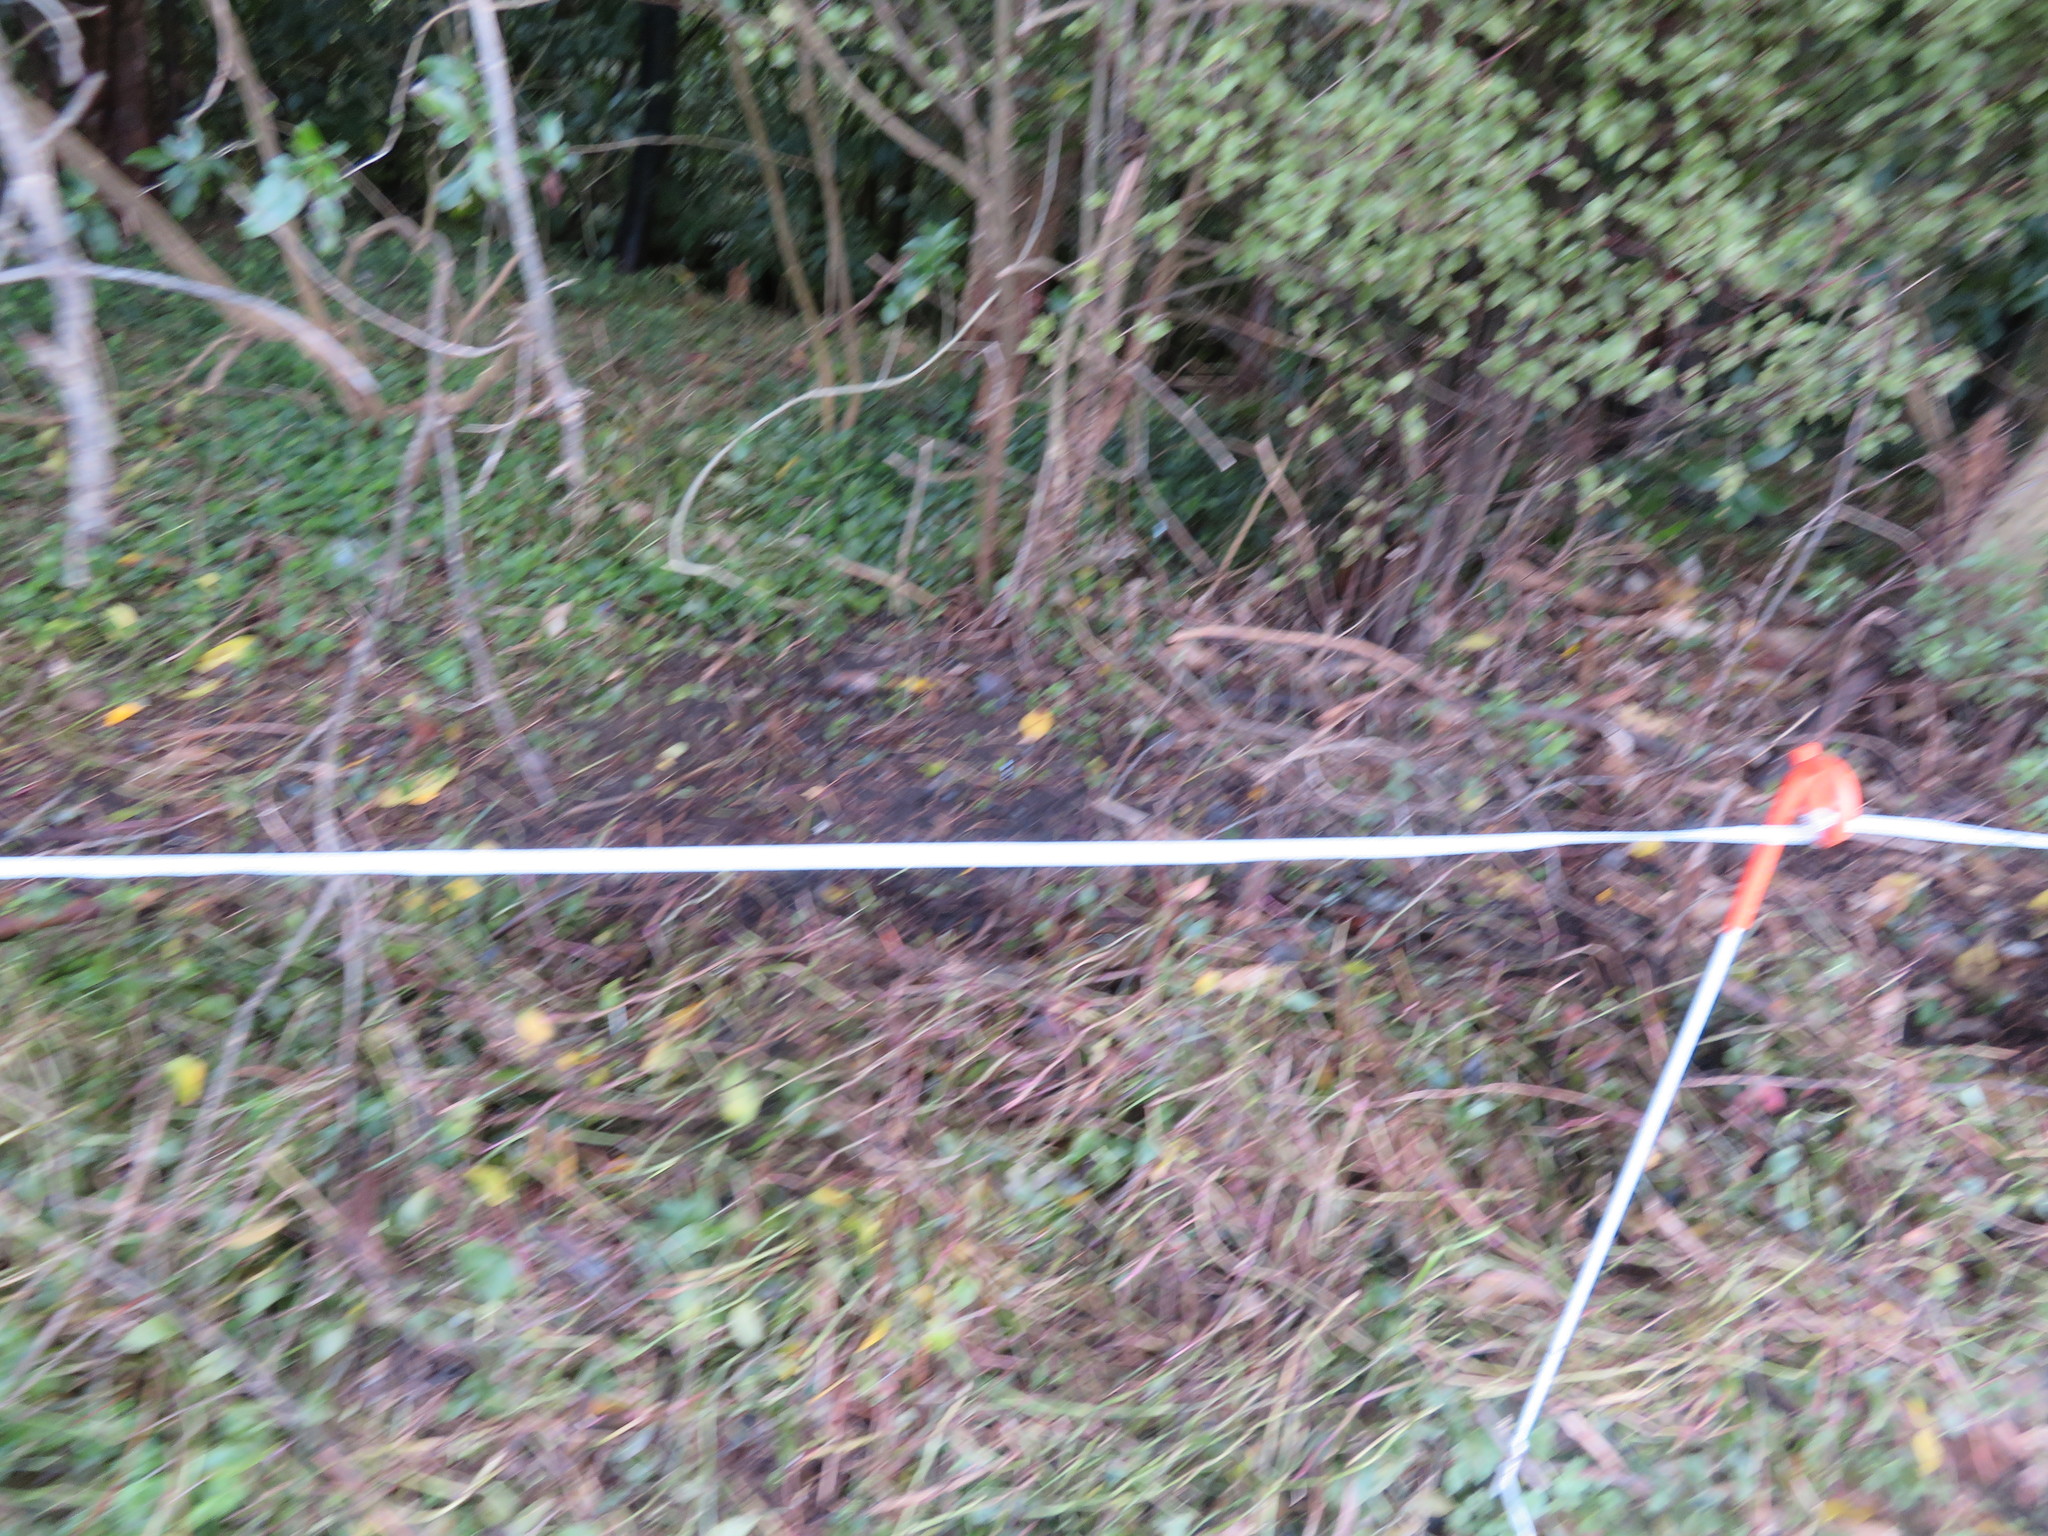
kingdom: Plantae
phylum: Tracheophyta
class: Liliopsida
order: Commelinales
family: Commelinaceae
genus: Tradescantia
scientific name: Tradescantia fluminensis
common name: Wandering-jew
